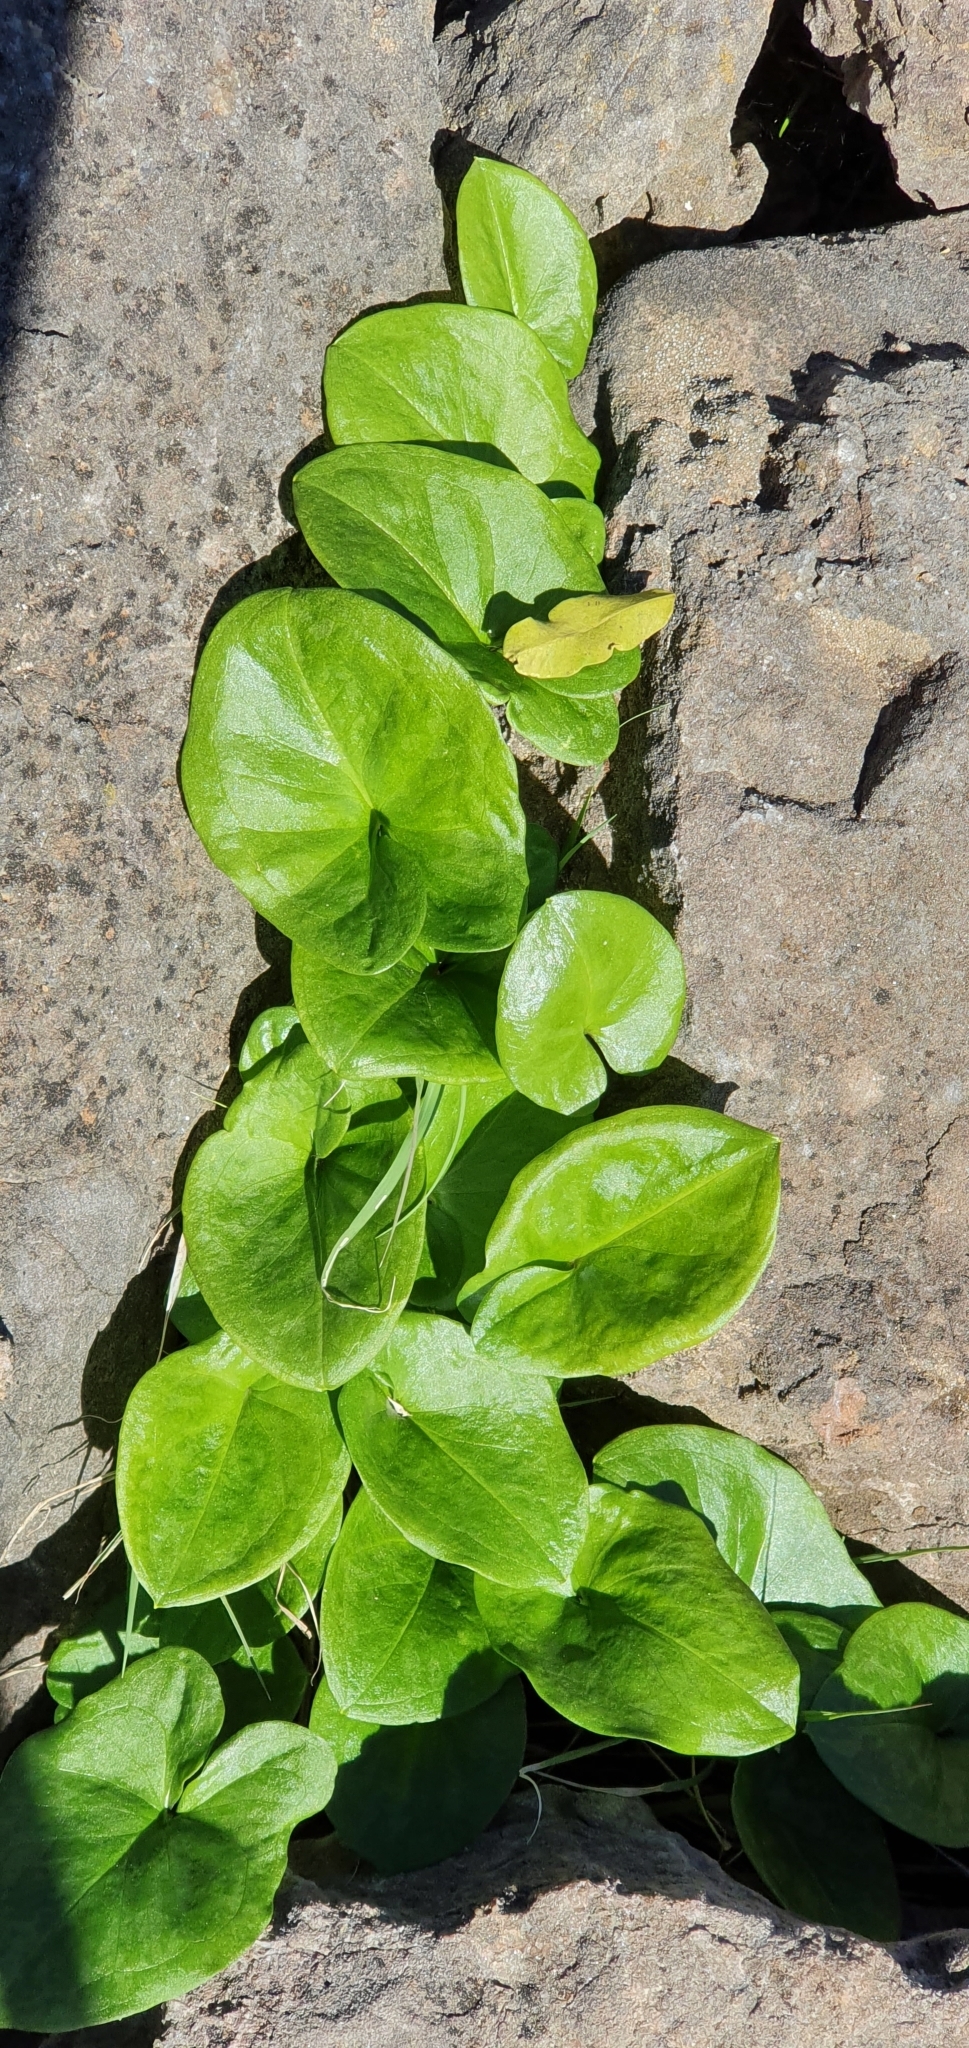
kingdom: Plantae
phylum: Tracheophyta
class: Liliopsida
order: Alismatales
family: Araceae
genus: Arisarum
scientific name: Arisarum vulgare
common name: Common arisarum
